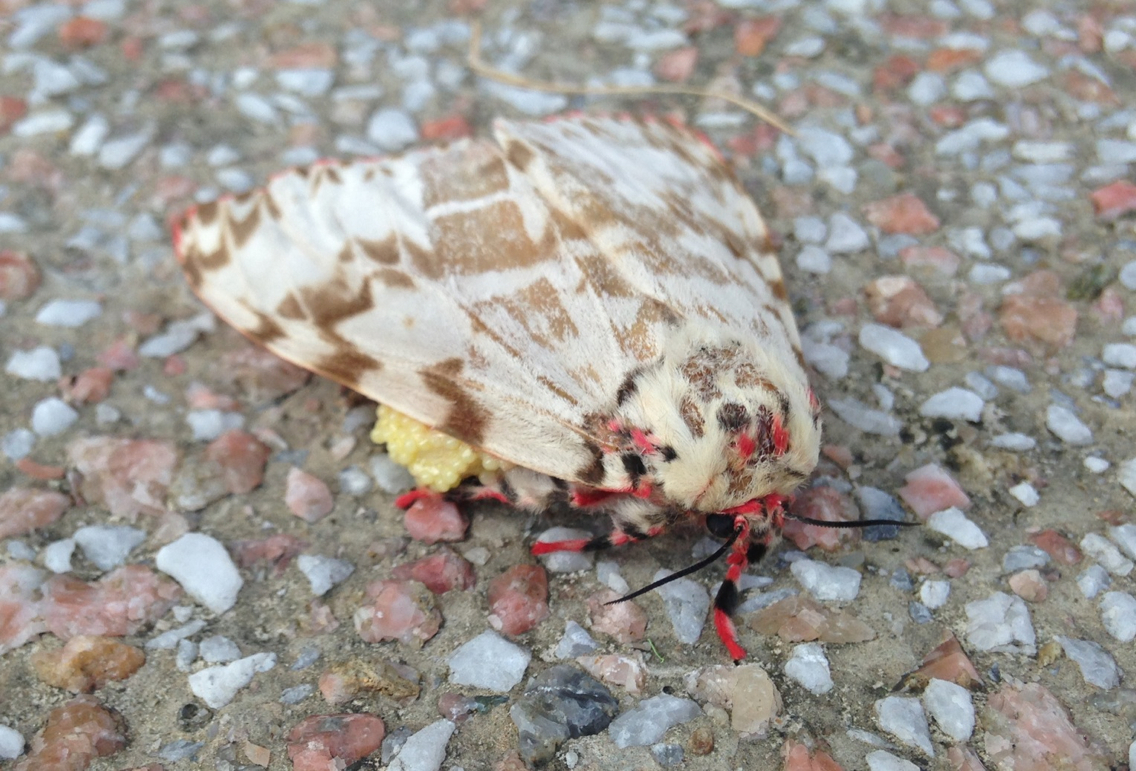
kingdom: Animalia
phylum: Arthropoda
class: Insecta
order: Lepidoptera
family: Erebidae
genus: Lymantria
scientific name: Lymantria mathura
